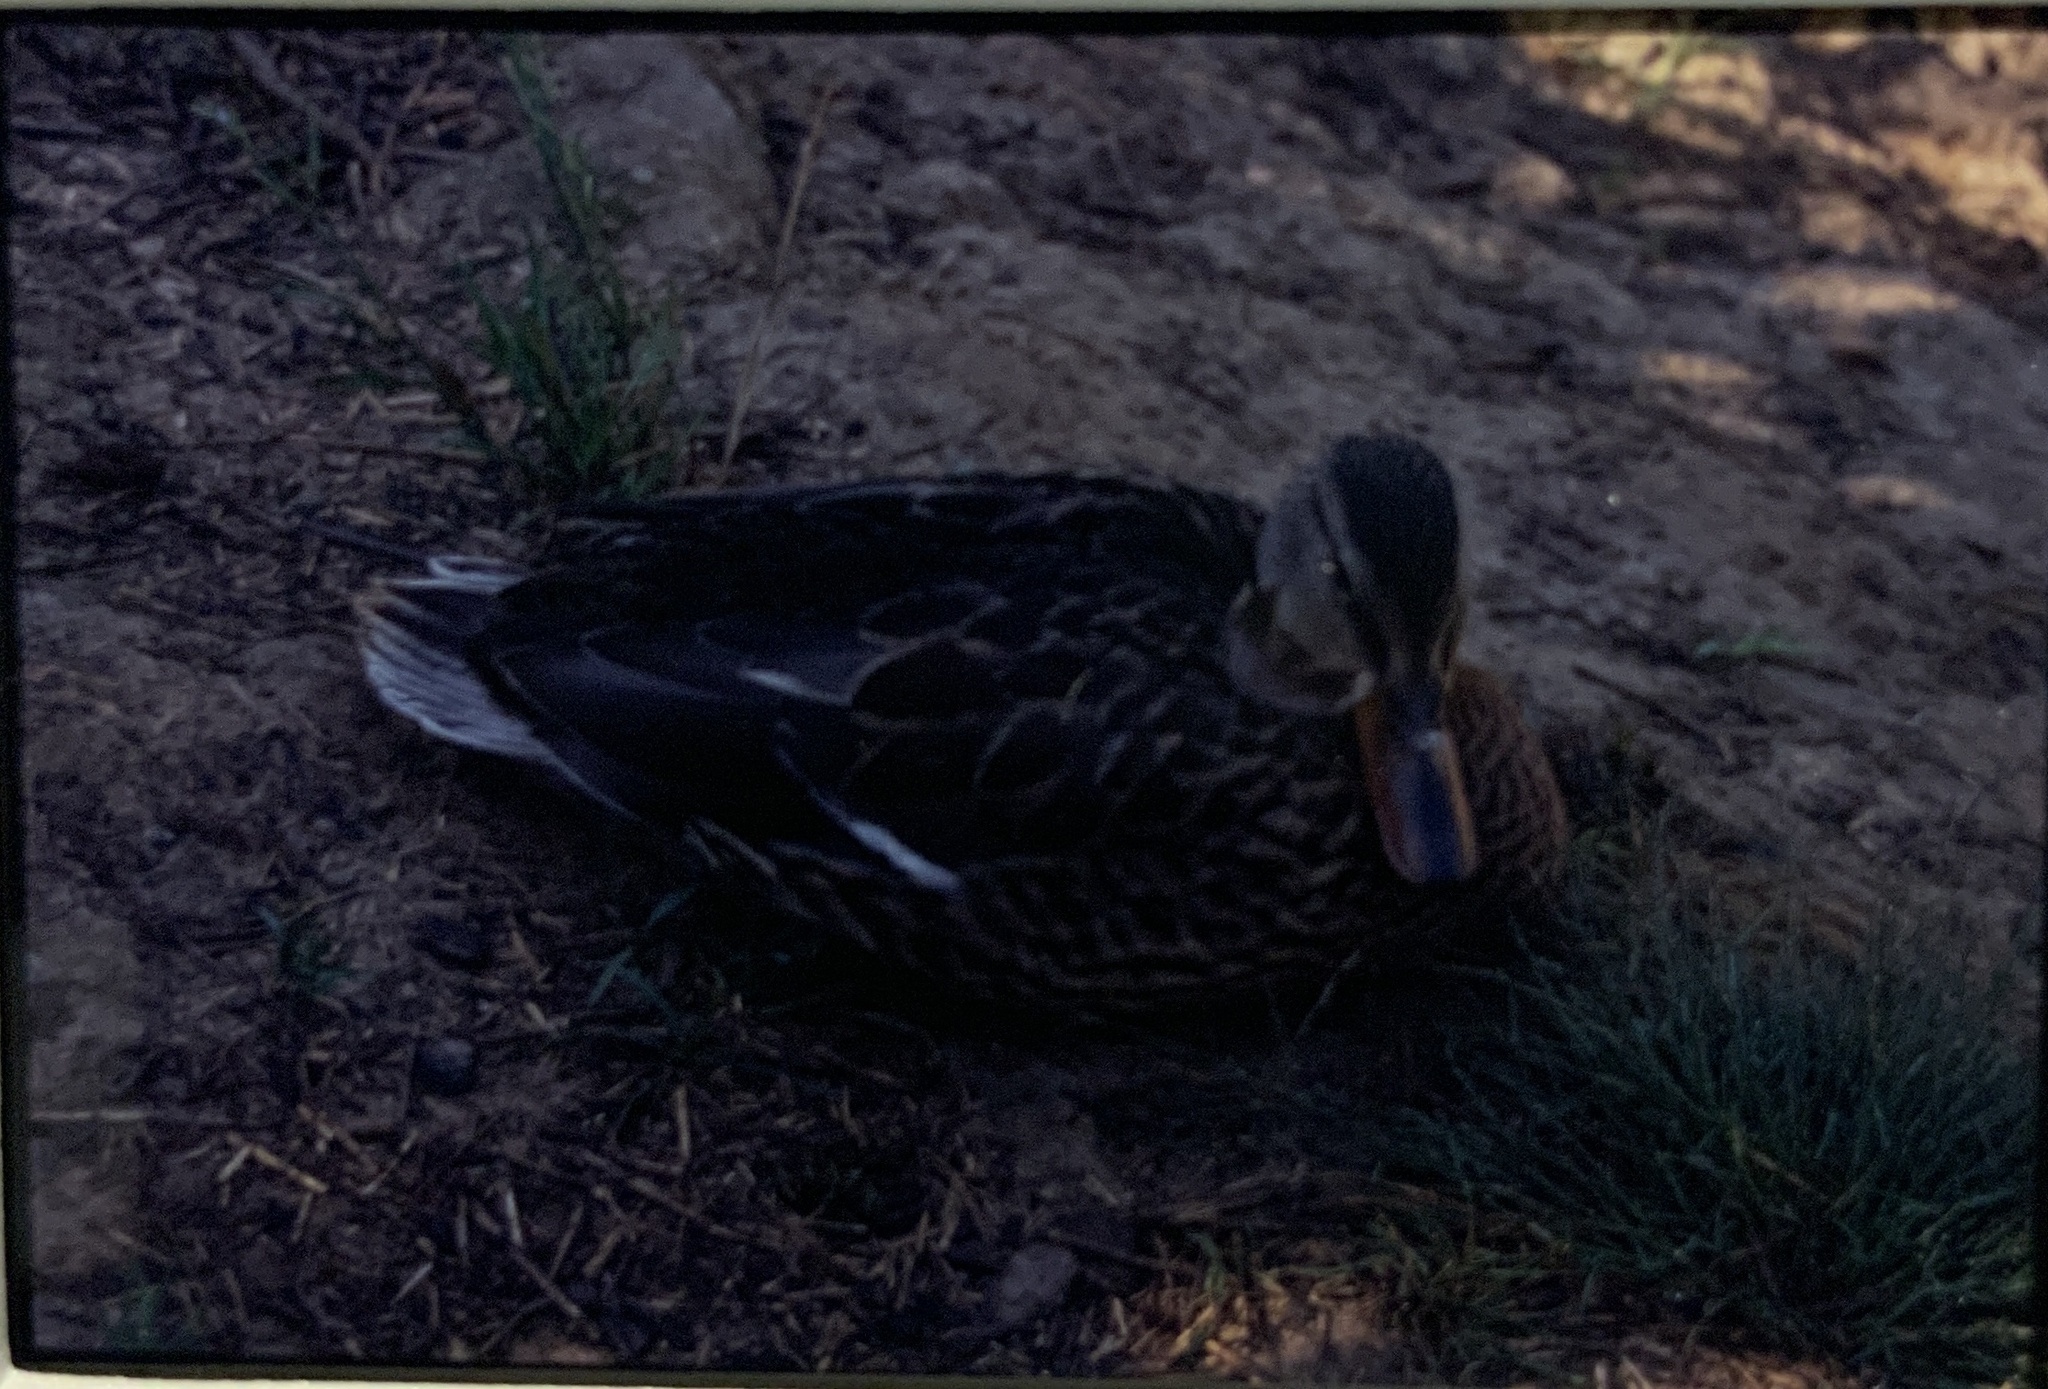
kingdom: Animalia
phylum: Chordata
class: Aves
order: Anseriformes
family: Anatidae
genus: Anas
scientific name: Anas platyrhynchos
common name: Mallard
